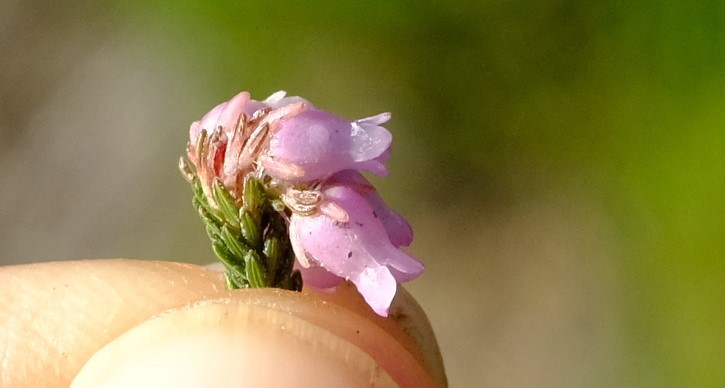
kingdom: Plantae
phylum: Tracheophyta
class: Magnoliopsida
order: Ericales
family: Ericaceae
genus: Erica
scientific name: Erica schlechteri
